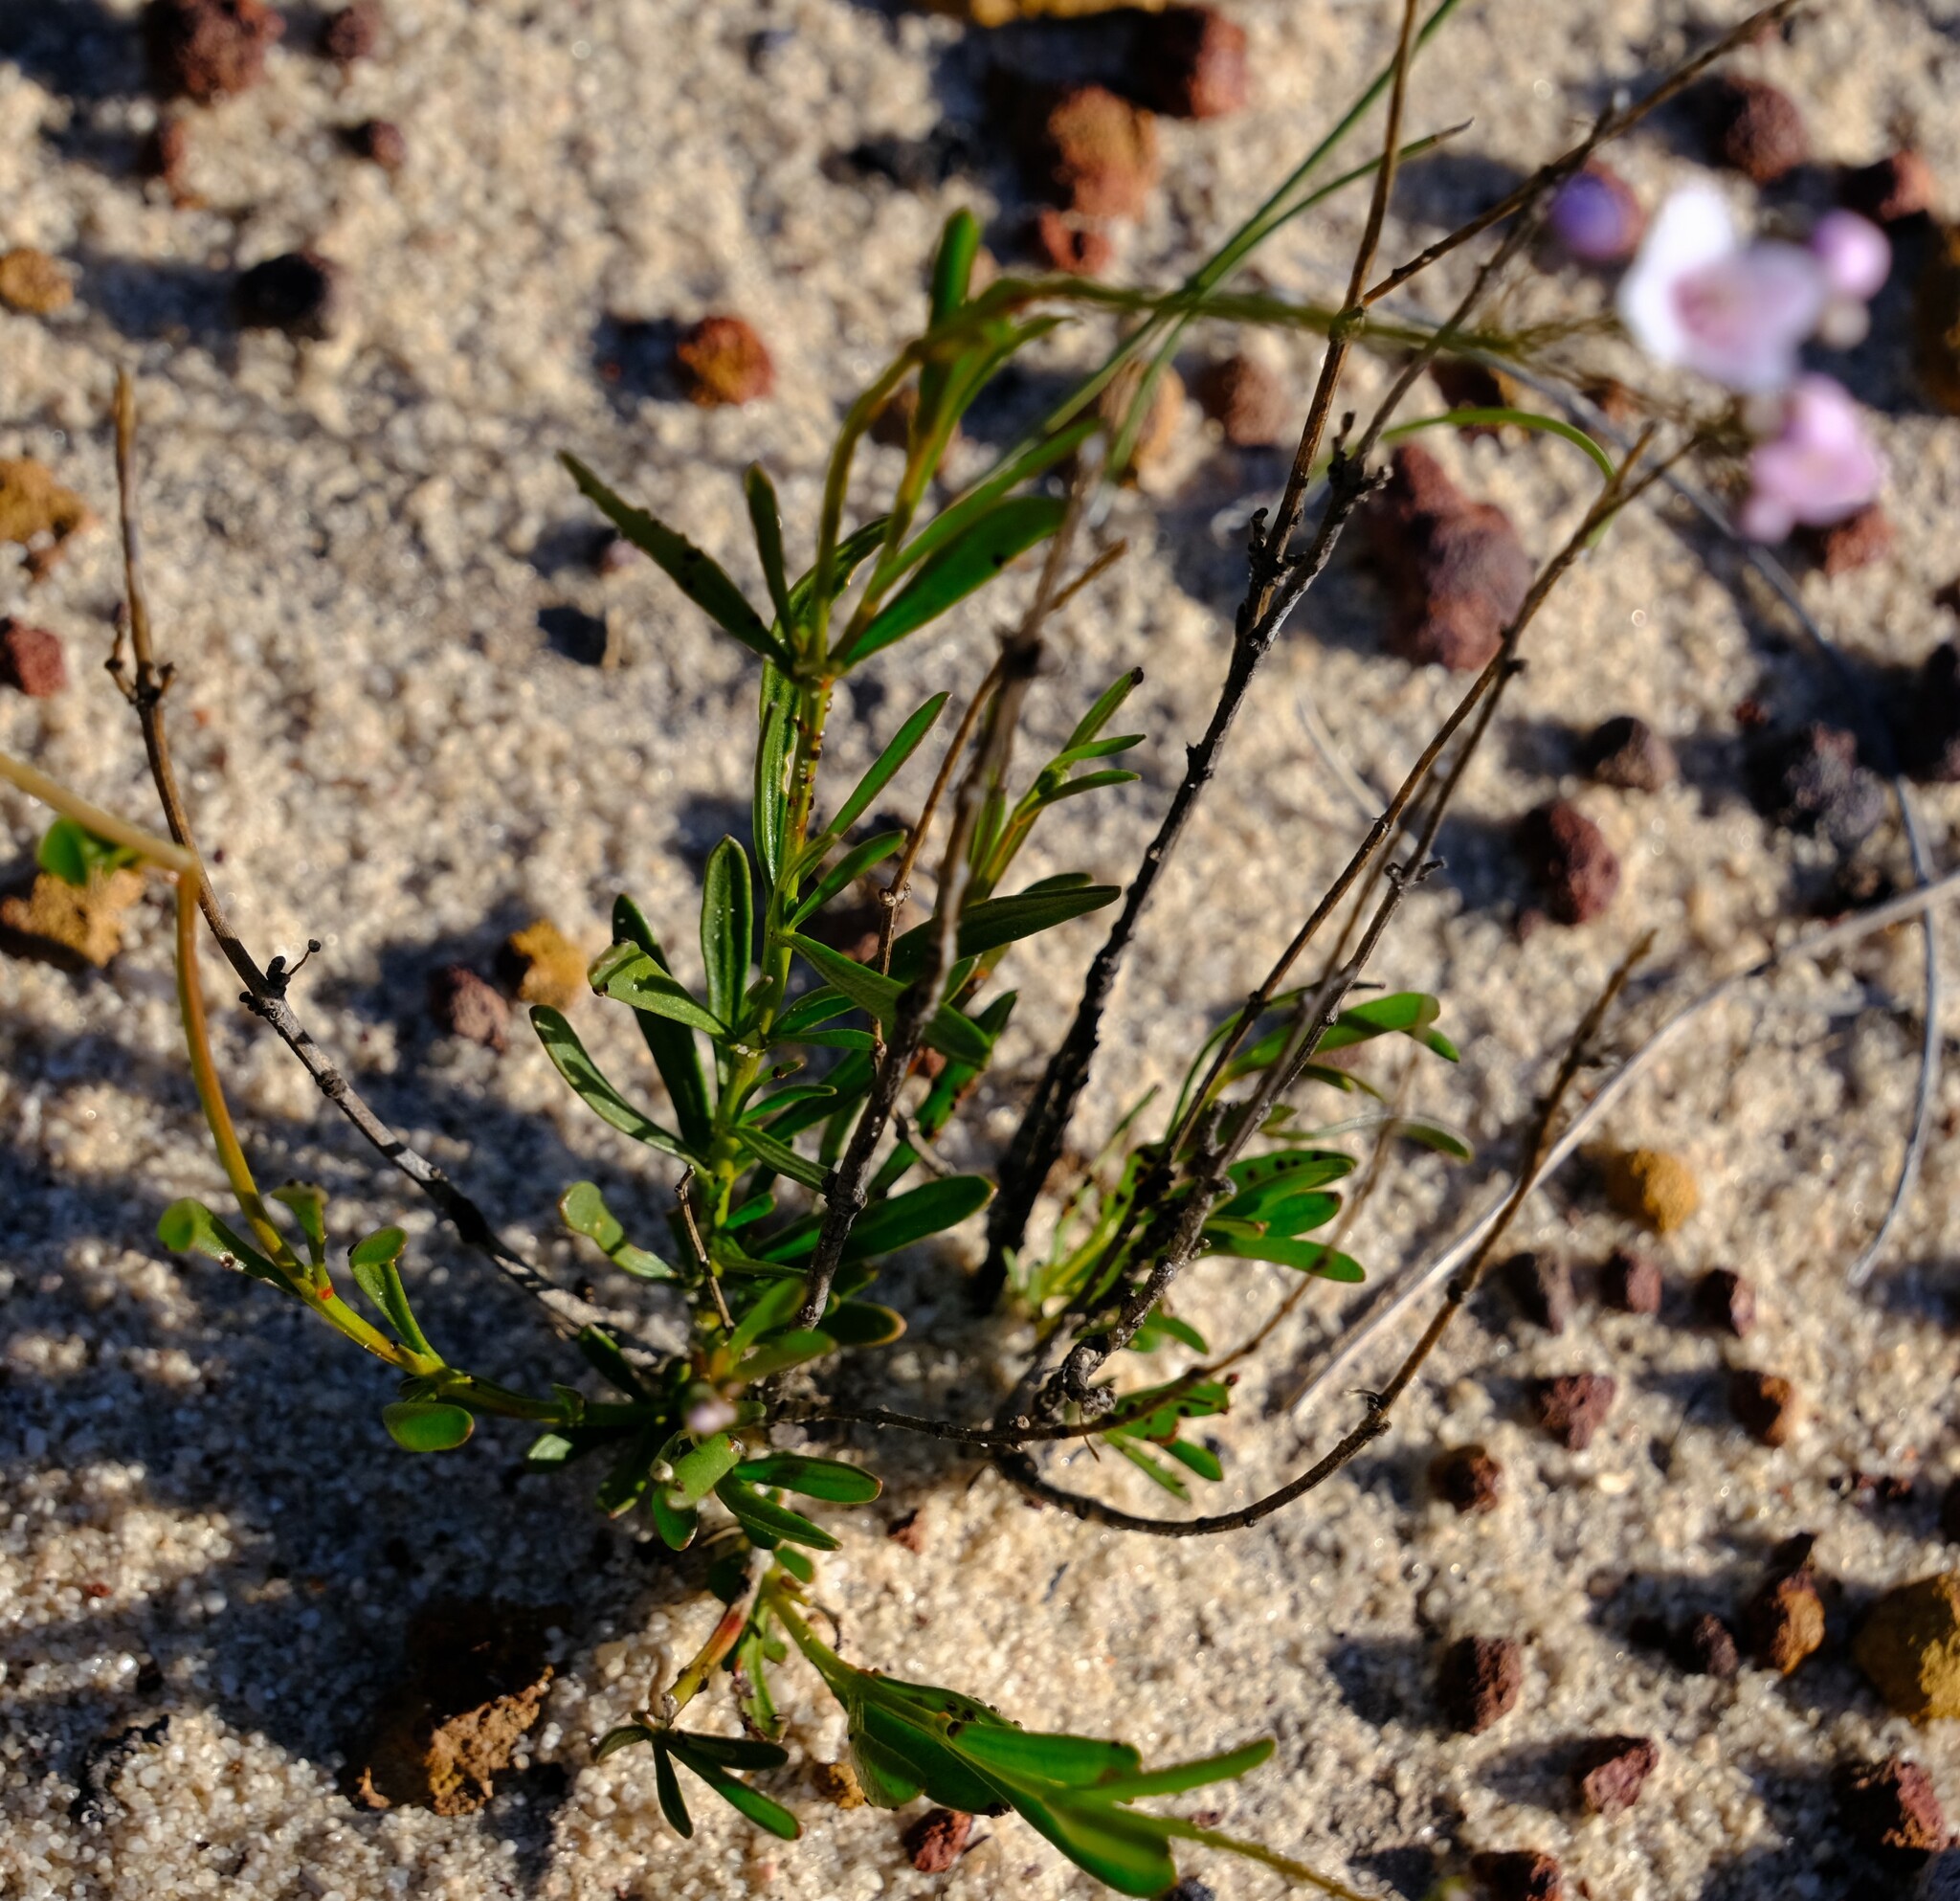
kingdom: Plantae
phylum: Tracheophyta
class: Magnoliopsida
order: Sapindales
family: Rutaceae
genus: Boronia
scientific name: Boronia cymosa
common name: Granite boronia
